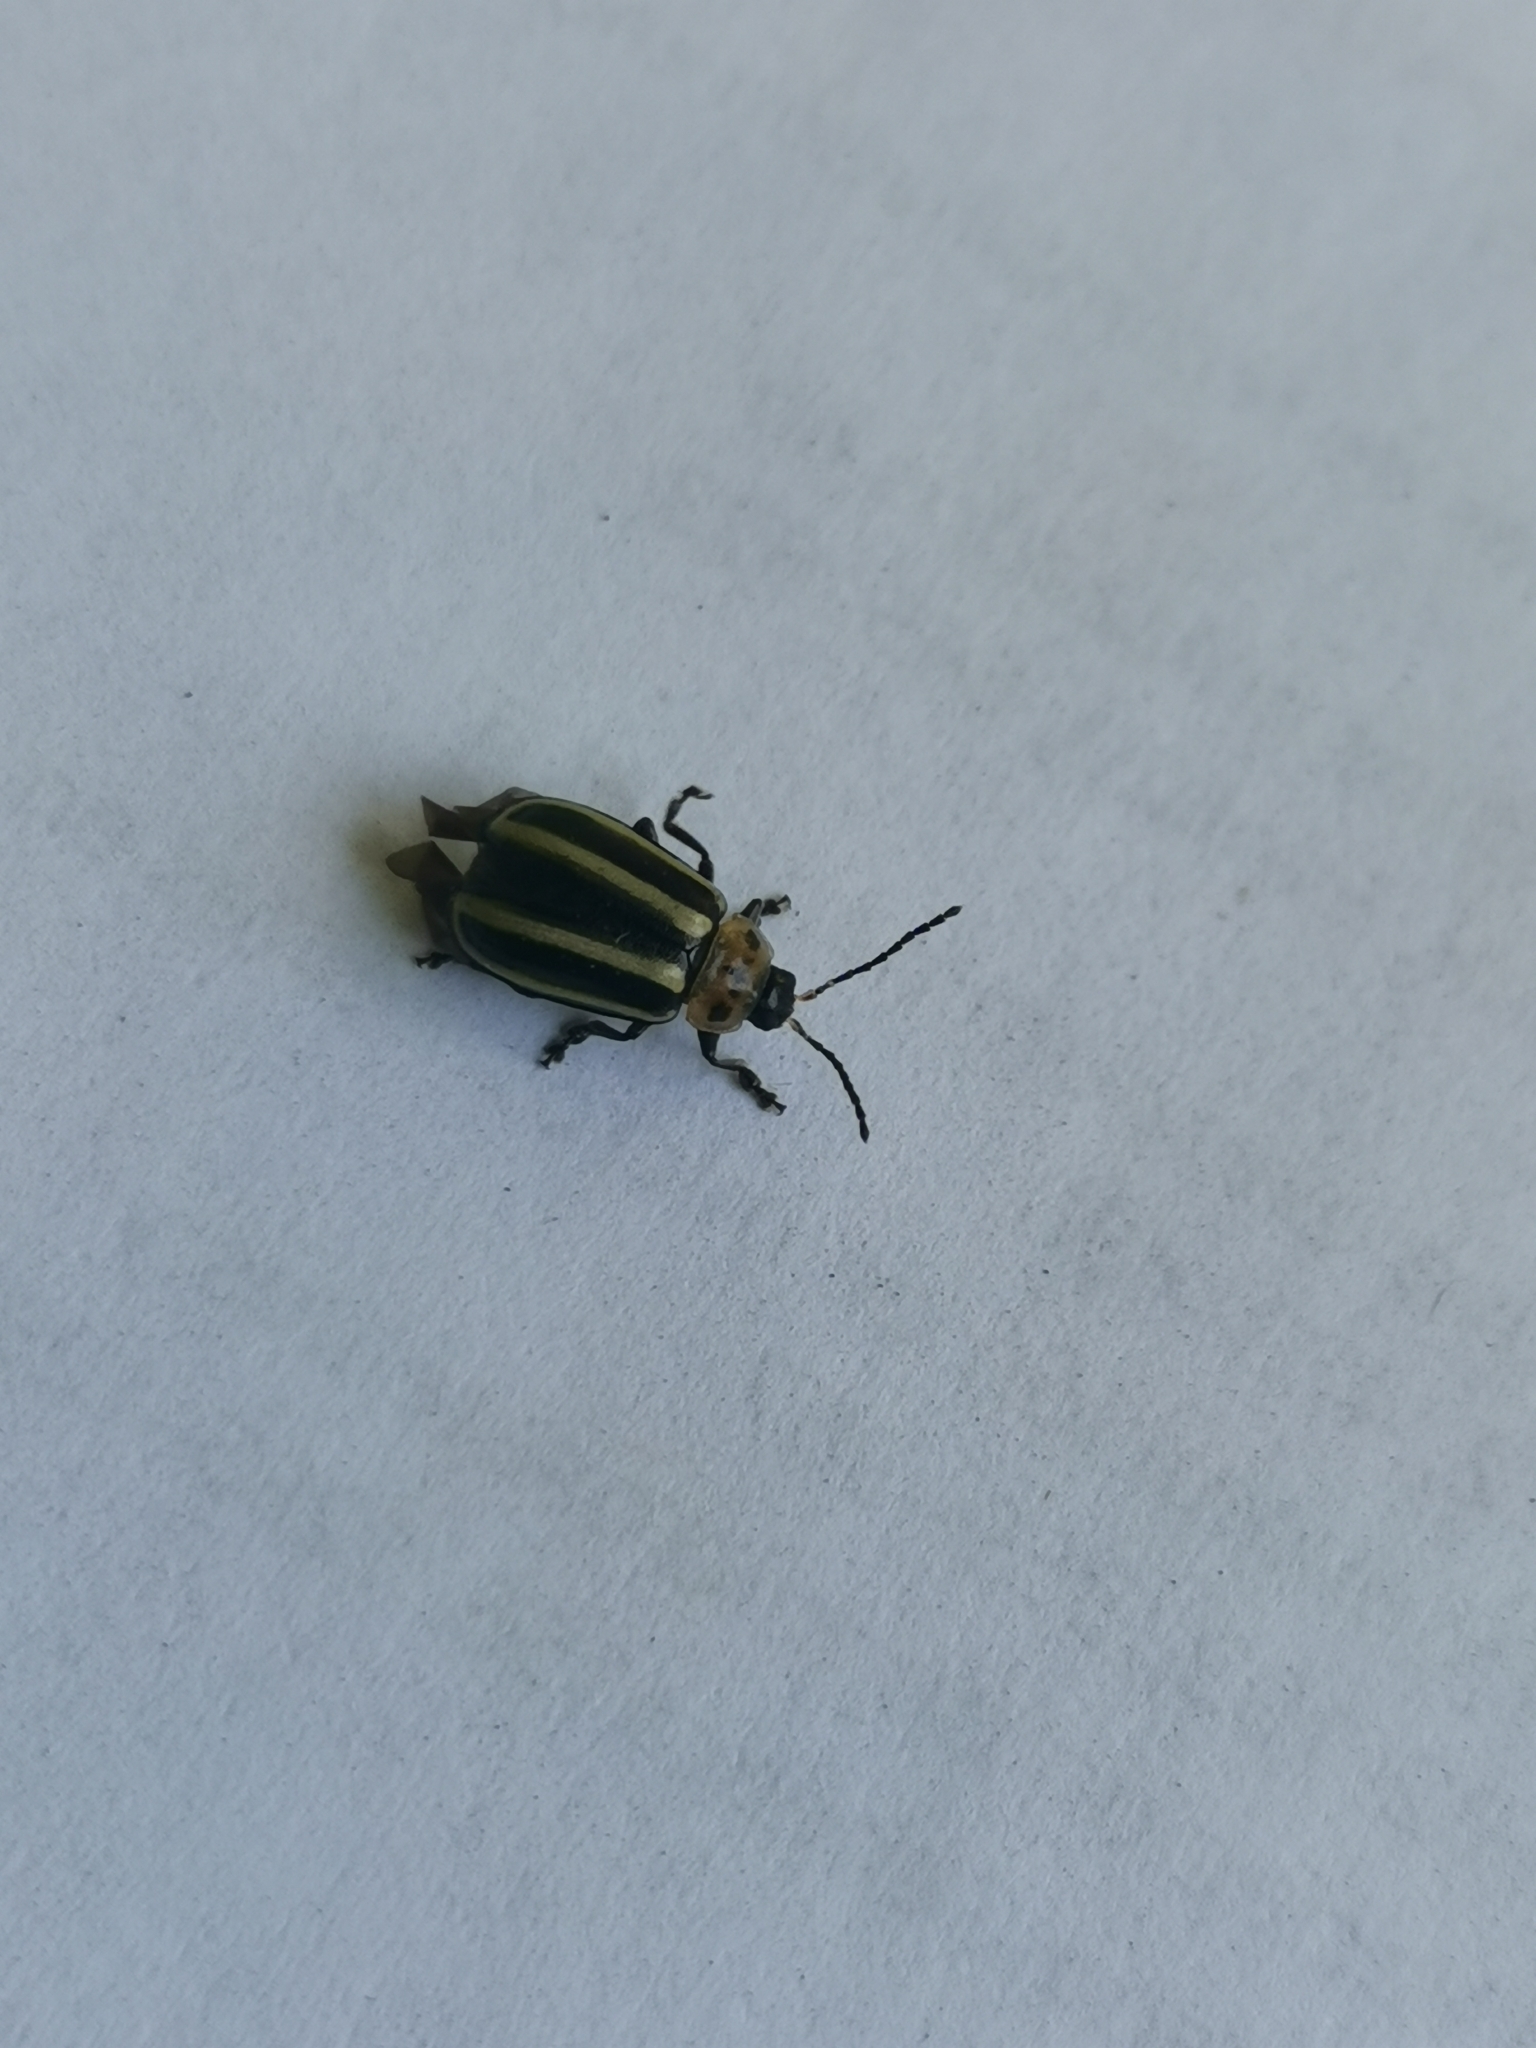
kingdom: Animalia
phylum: Arthropoda
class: Insecta
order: Coleoptera
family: Chrysomelidae
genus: Disonycha
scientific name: Disonycha glabrata
